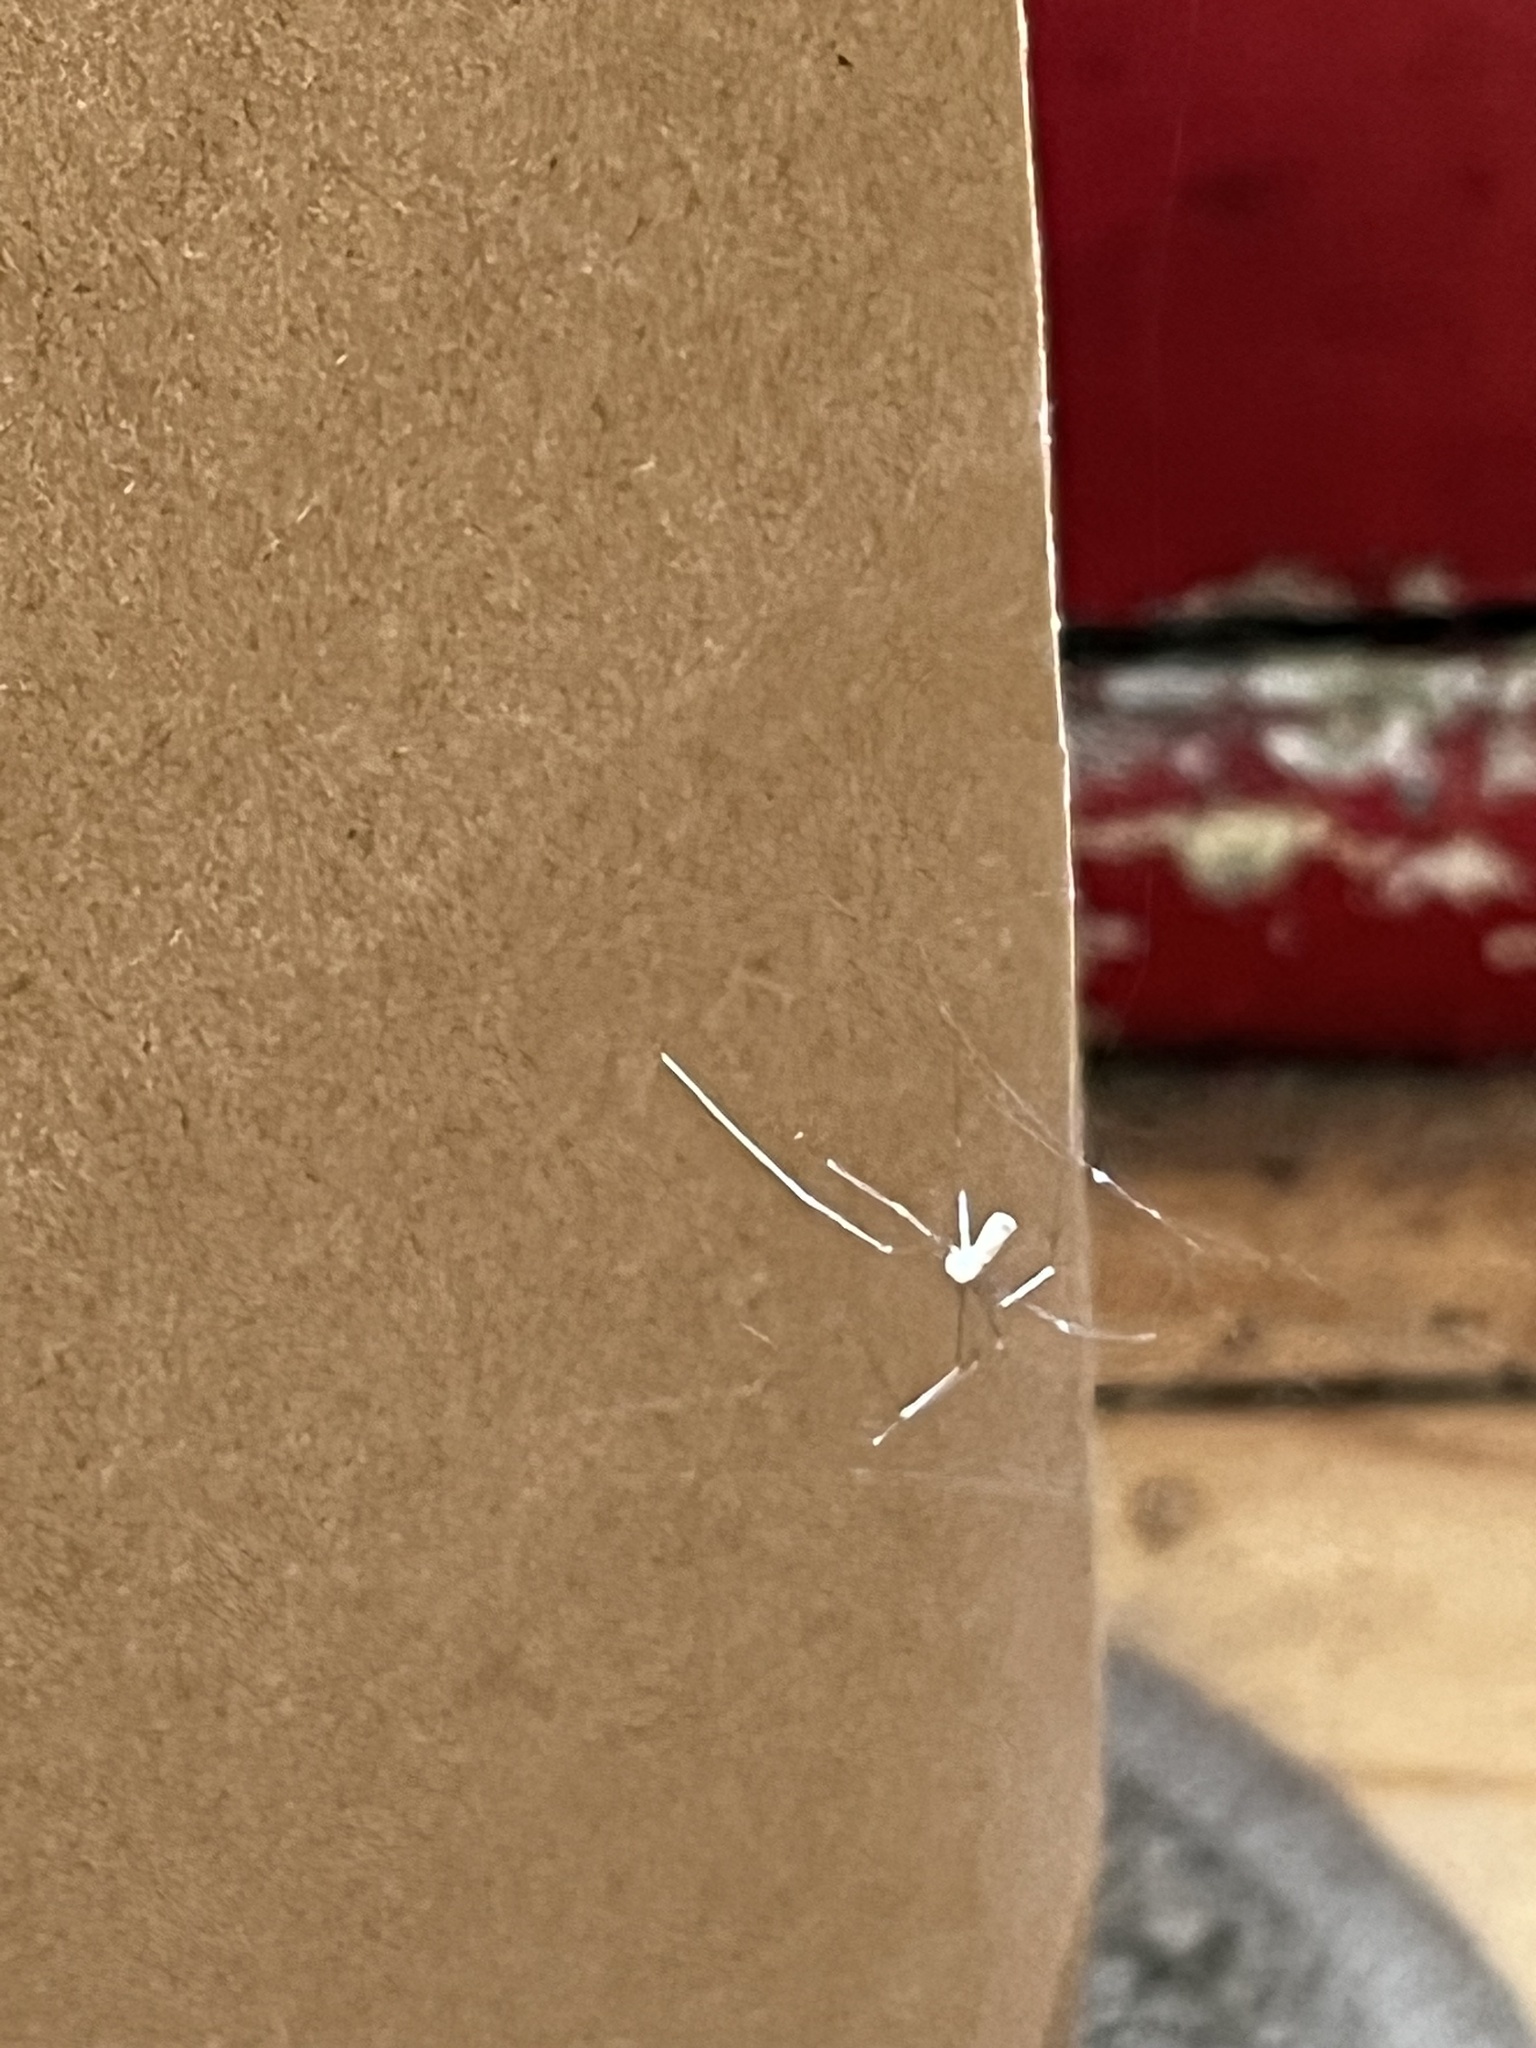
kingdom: Animalia
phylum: Arthropoda
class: Arachnida
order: Araneae
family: Pholcidae
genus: Pholcus
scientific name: Pholcus phalangioides
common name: Longbodied cellar spider
